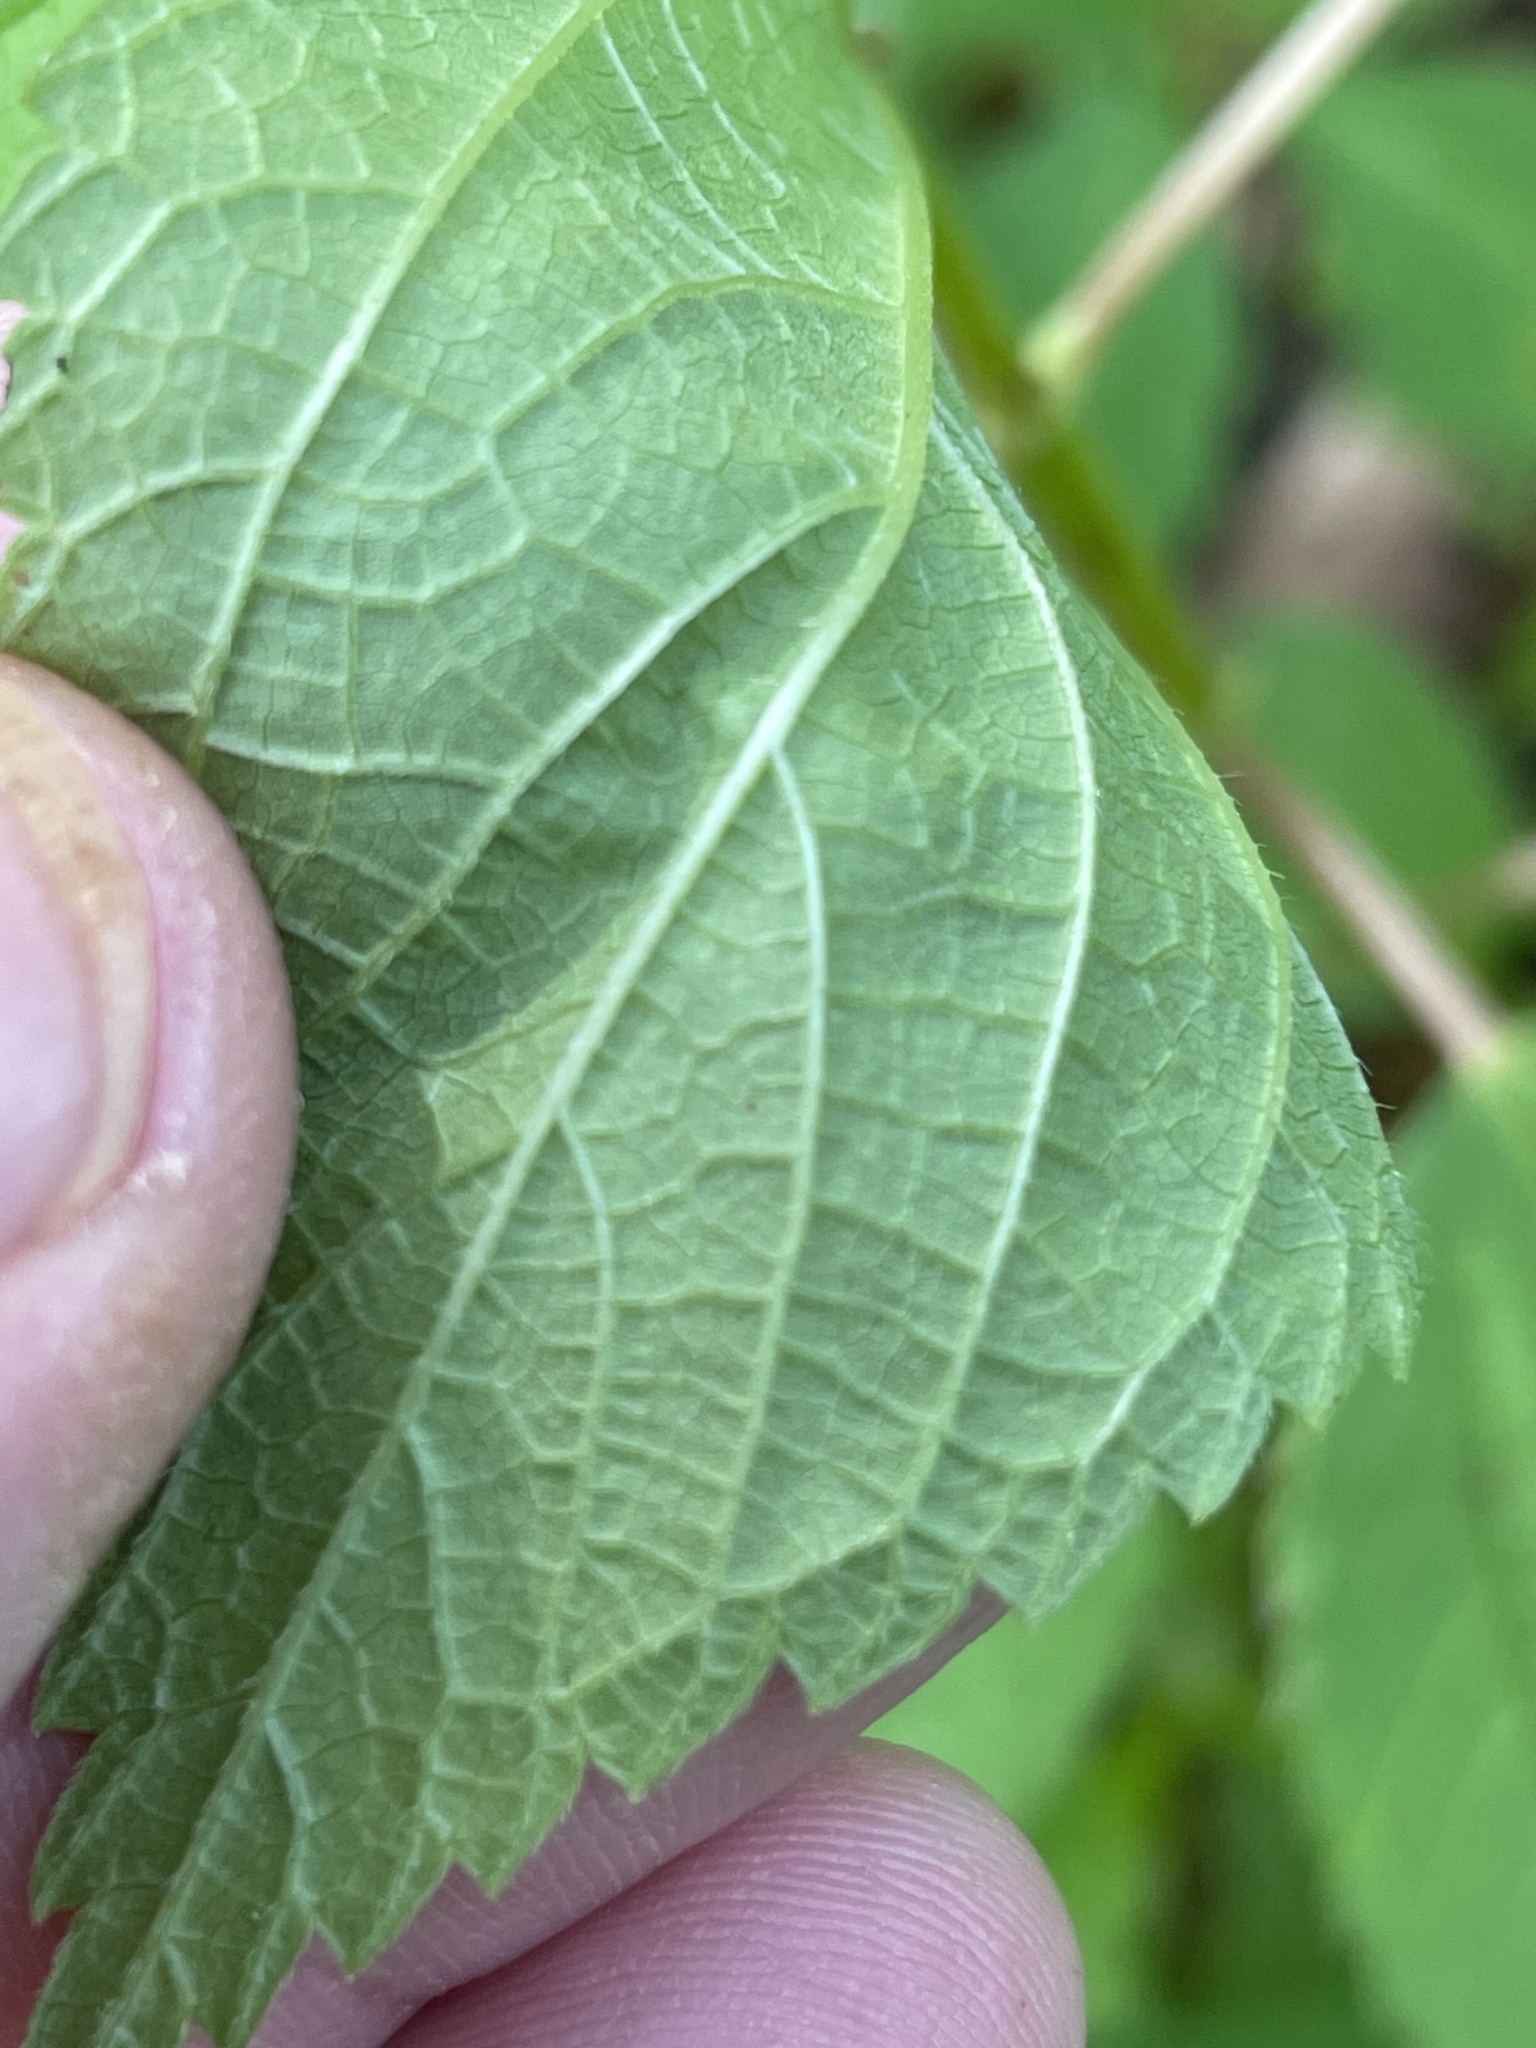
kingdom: Plantae
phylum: Tracheophyta
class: Magnoliopsida
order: Rosales
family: Urticaceae
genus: Boehmeria
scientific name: Boehmeria cylindrica
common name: Bog-hemp
